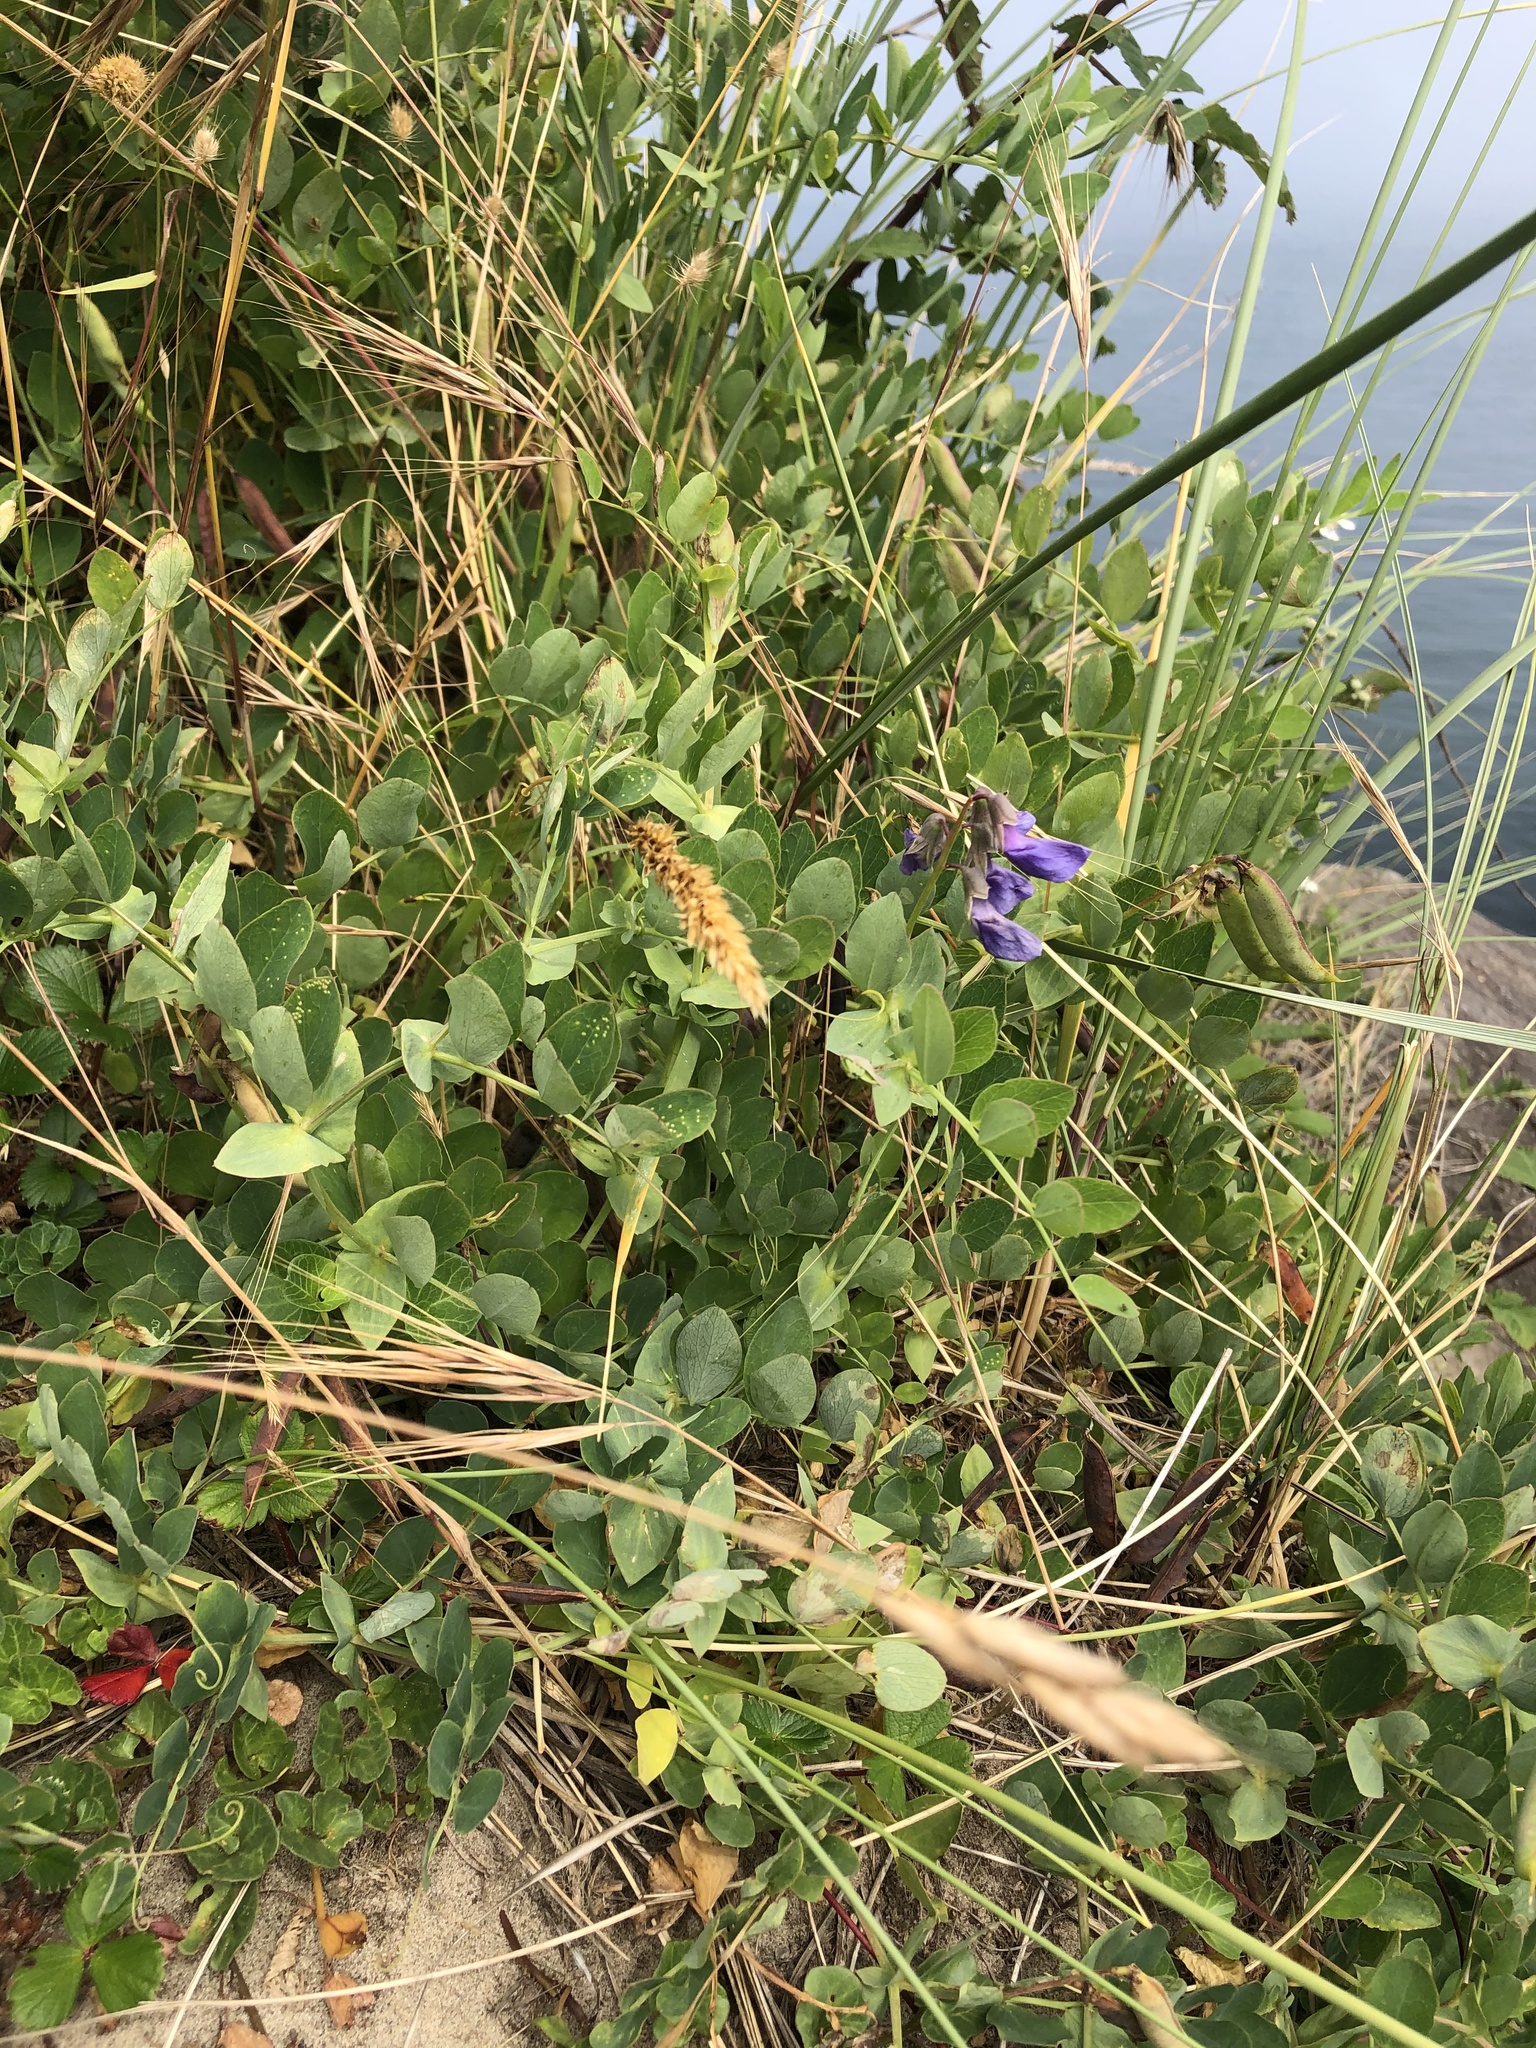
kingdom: Plantae
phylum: Tracheophyta
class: Magnoliopsida
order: Fabales
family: Fabaceae
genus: Lathyrus
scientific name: Lathyrus japonicus
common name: Sea pea
